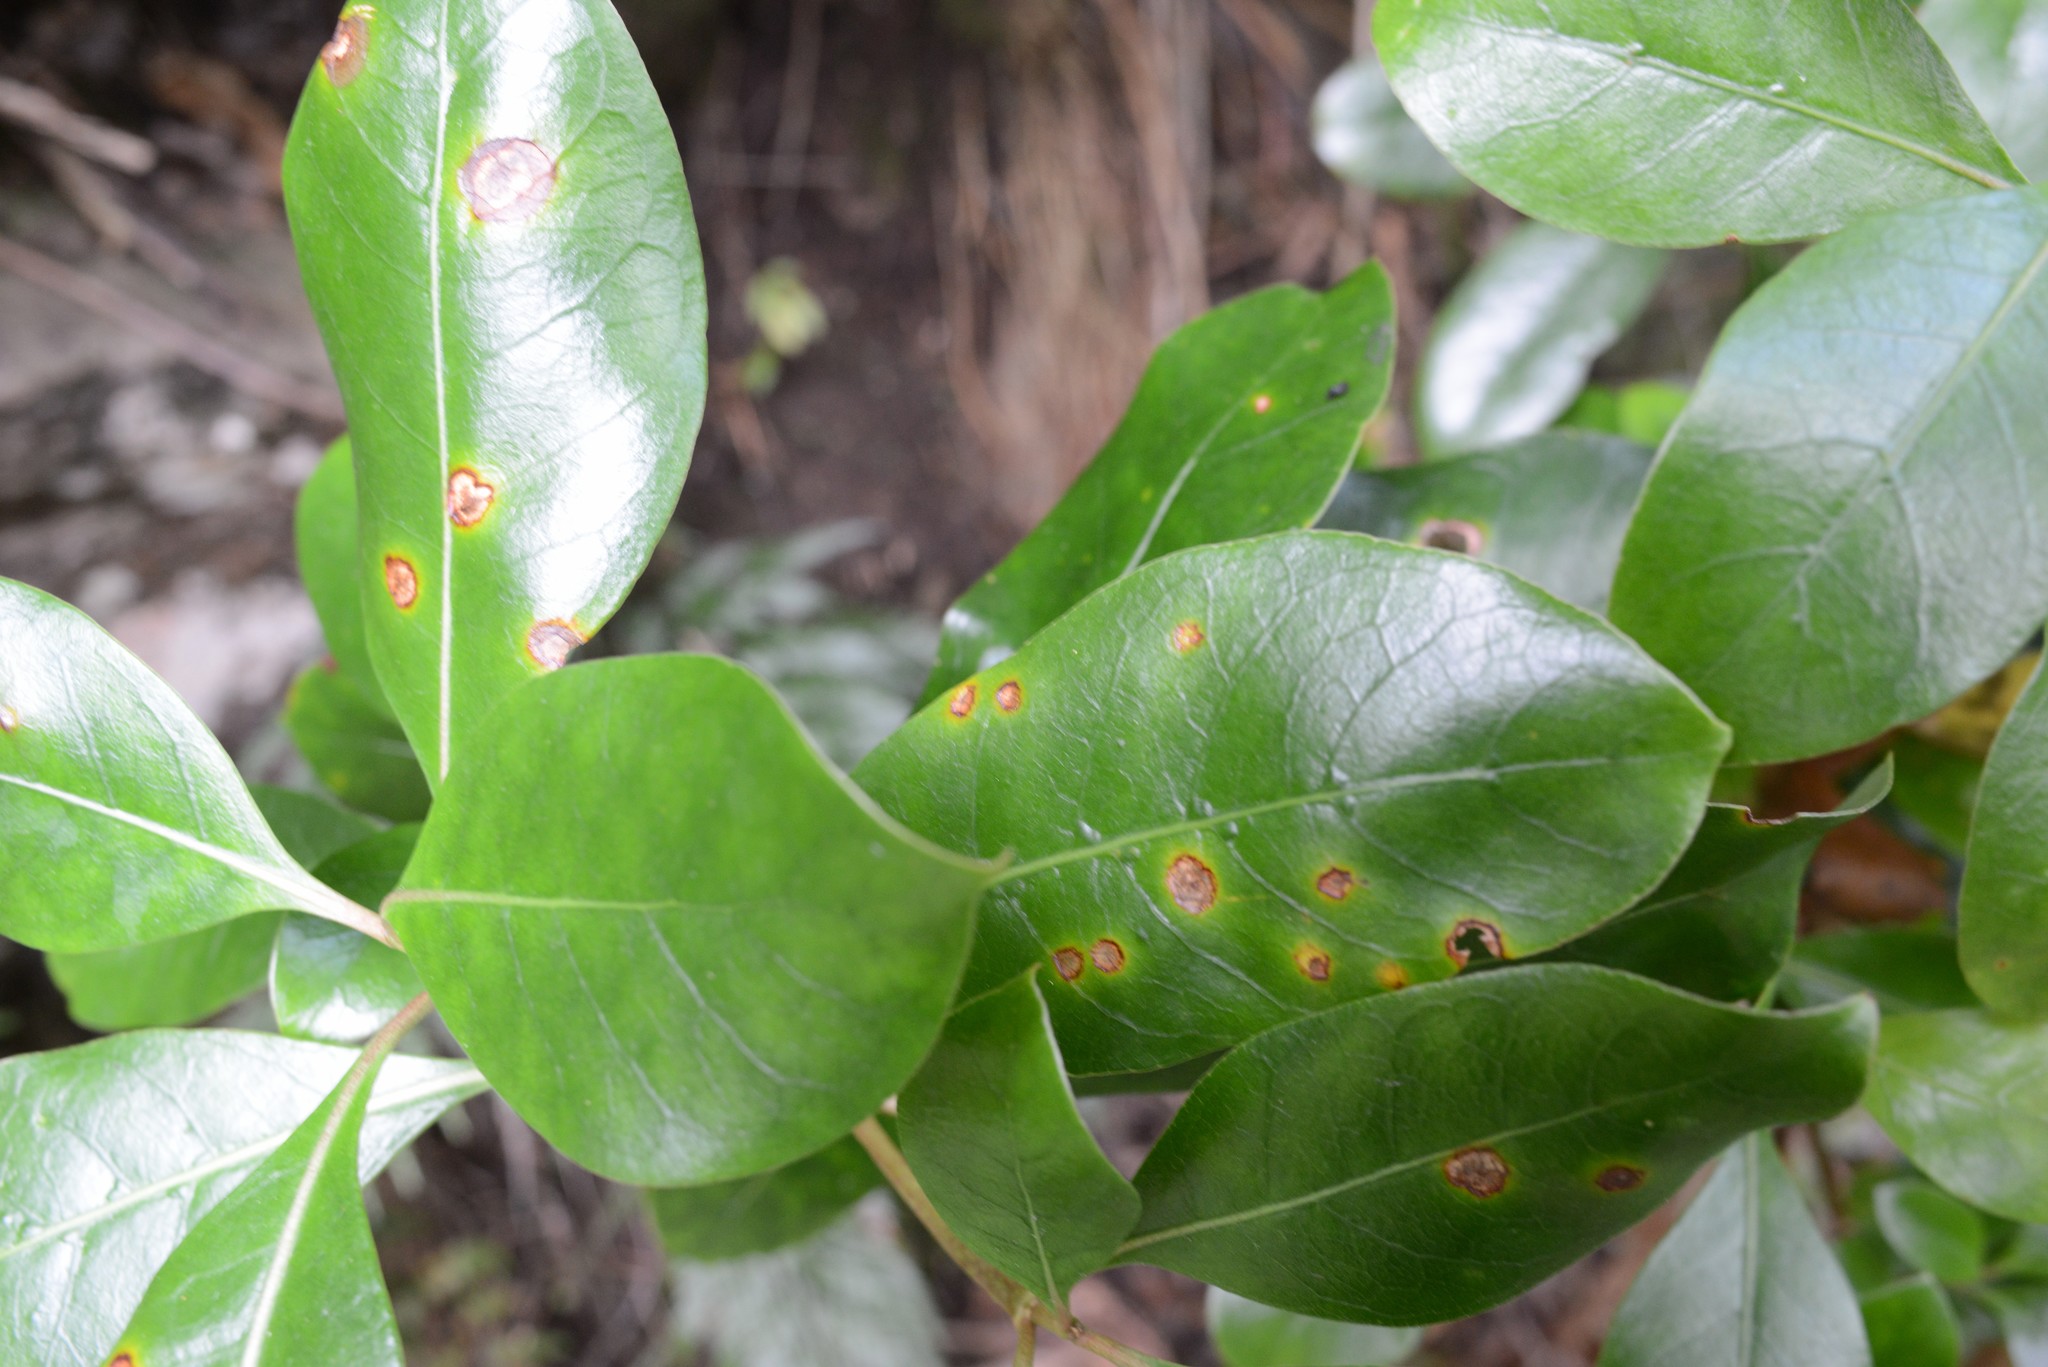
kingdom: Plantae
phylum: Tracheophyta
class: Magnoliopsida
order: Gentianales
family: Rubiaceae
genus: Coprosma
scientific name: Coprosma lucida
